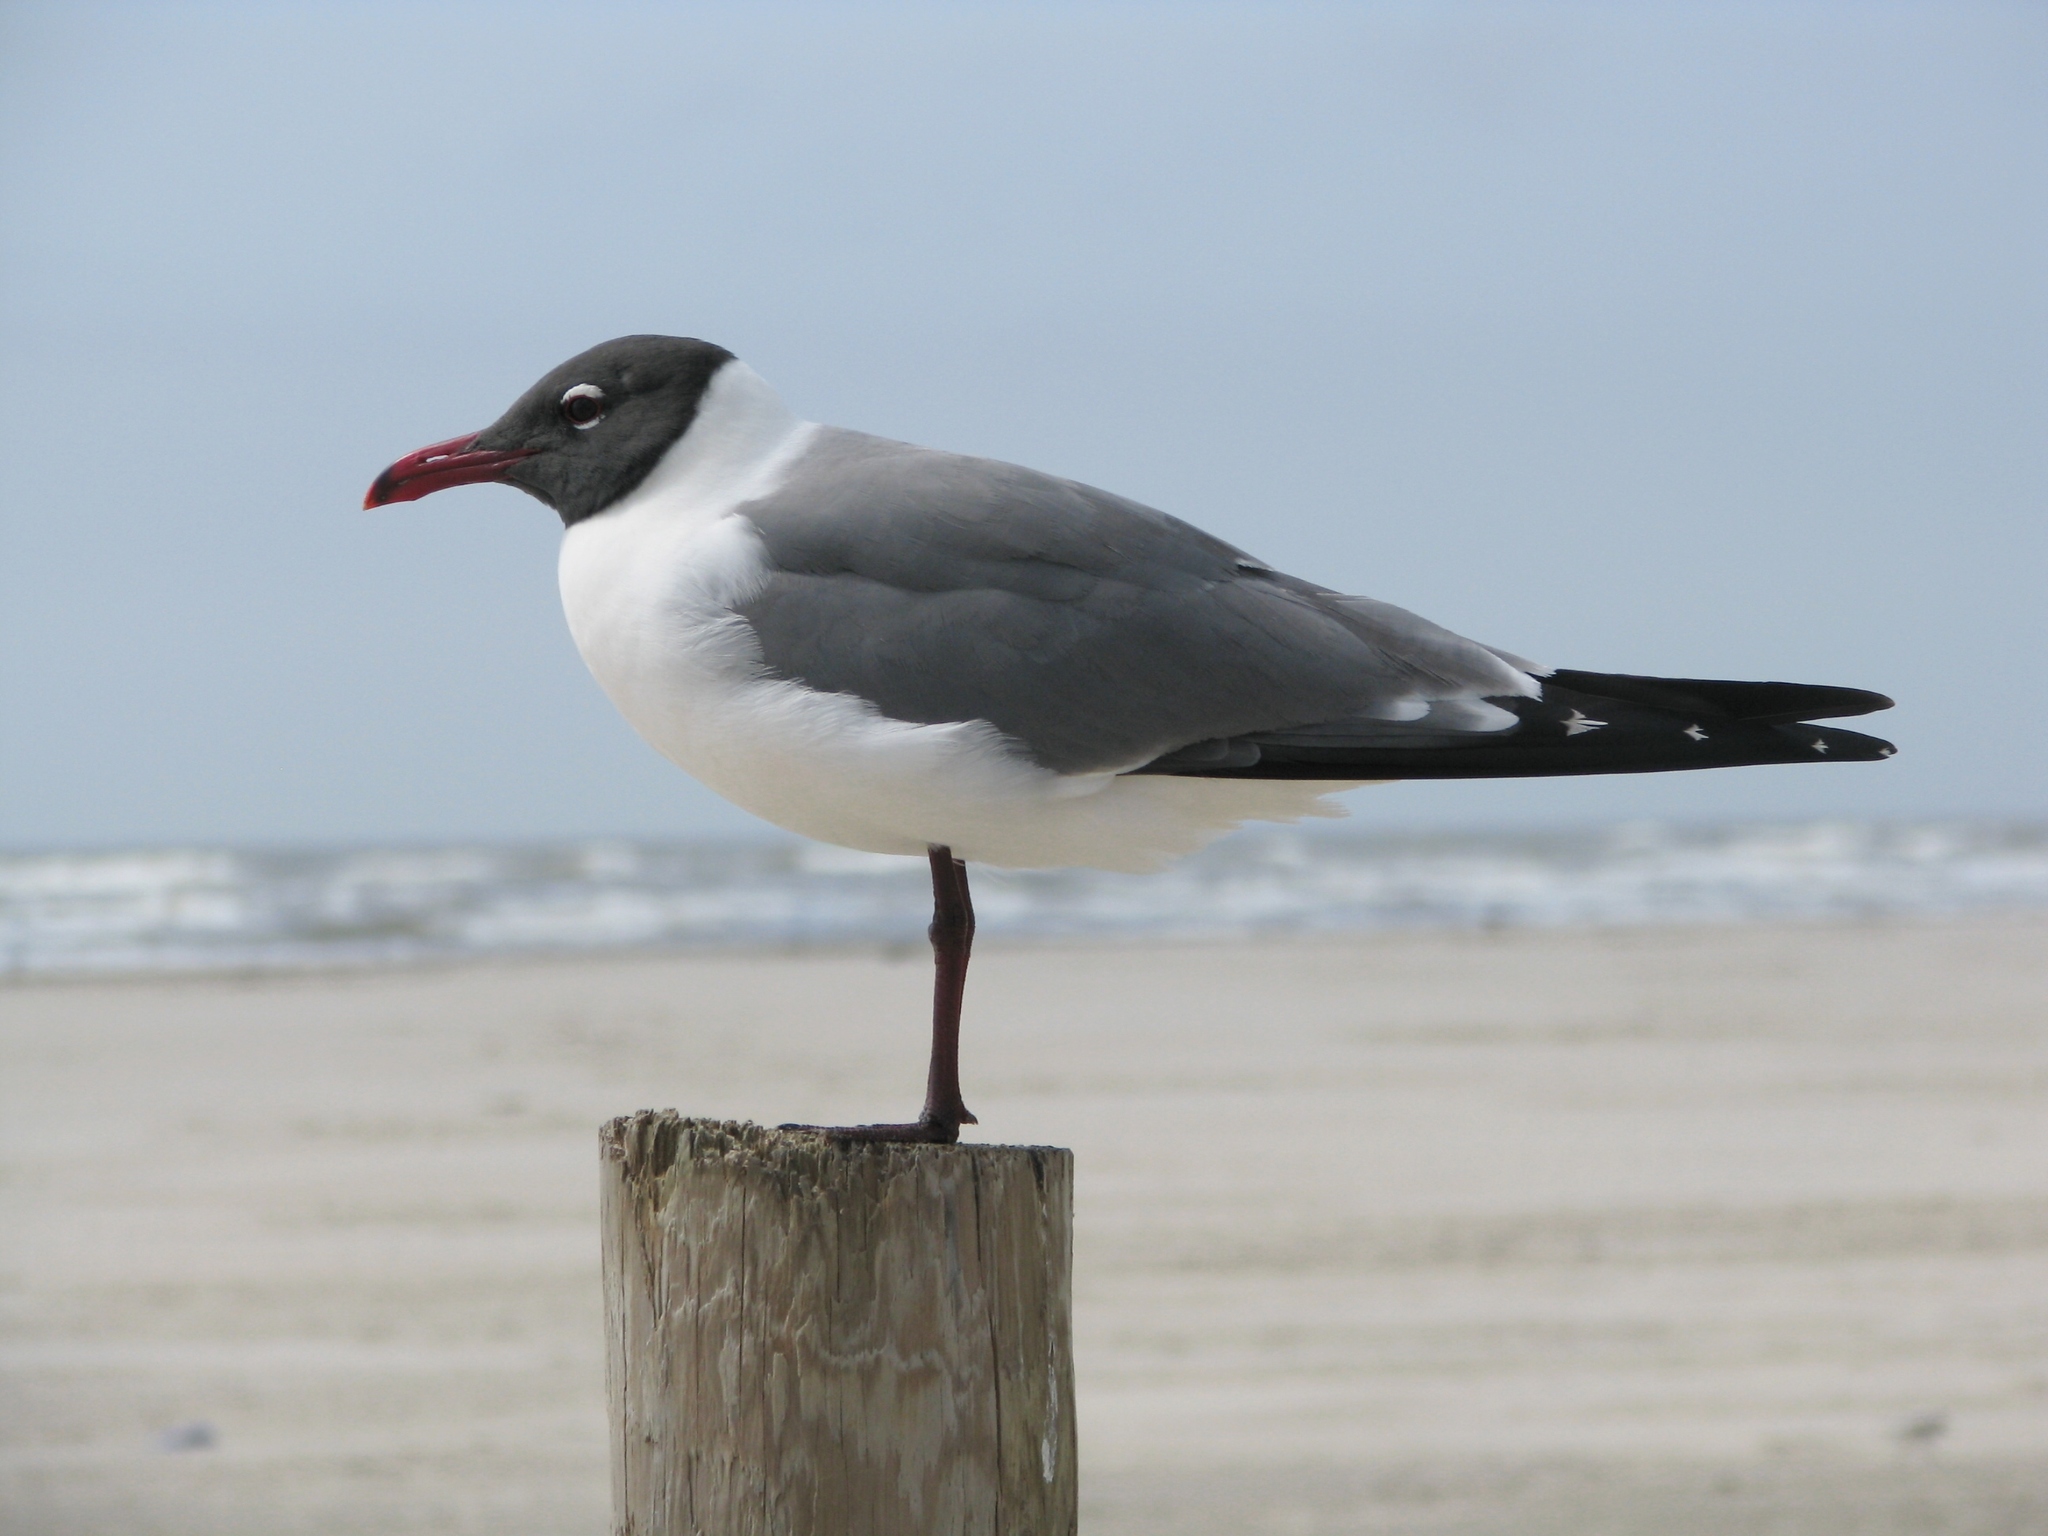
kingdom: Animalia
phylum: Chordata
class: Aves
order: Charadriiformes
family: Laridae
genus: Leucophaeus
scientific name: Leucophaeus atricilla
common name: Laughing gull
